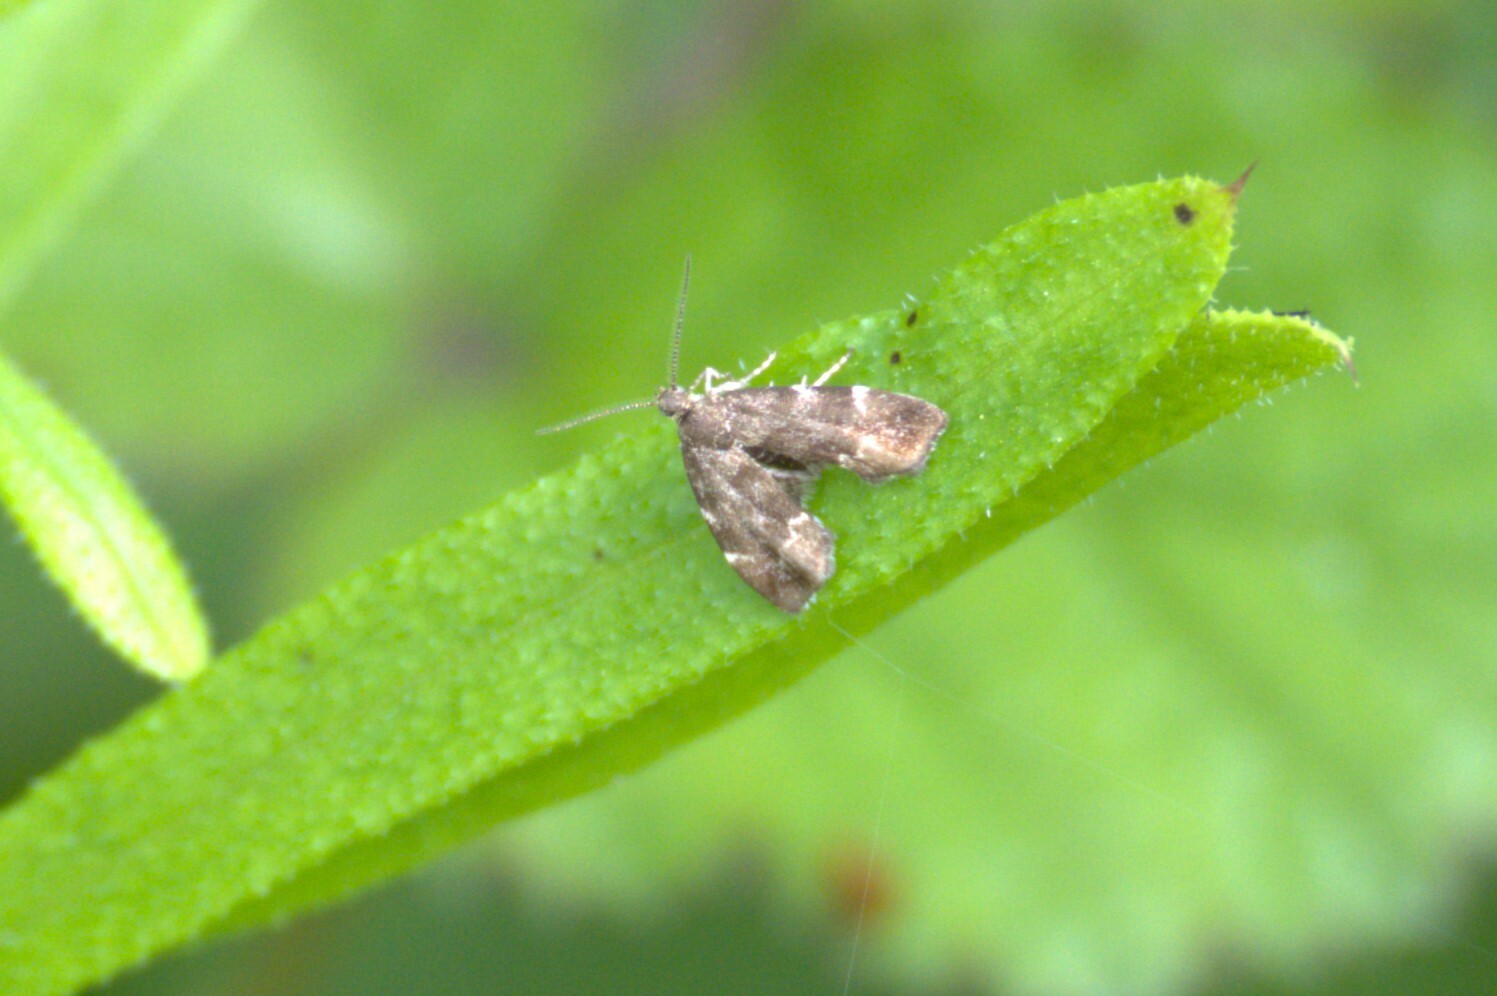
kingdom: Animalia
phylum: Arthropoda
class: Insecta
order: Lepidoptera
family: Choreutidae
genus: Anthophila
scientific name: Anthophila fabriciana
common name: Nettle-tap
